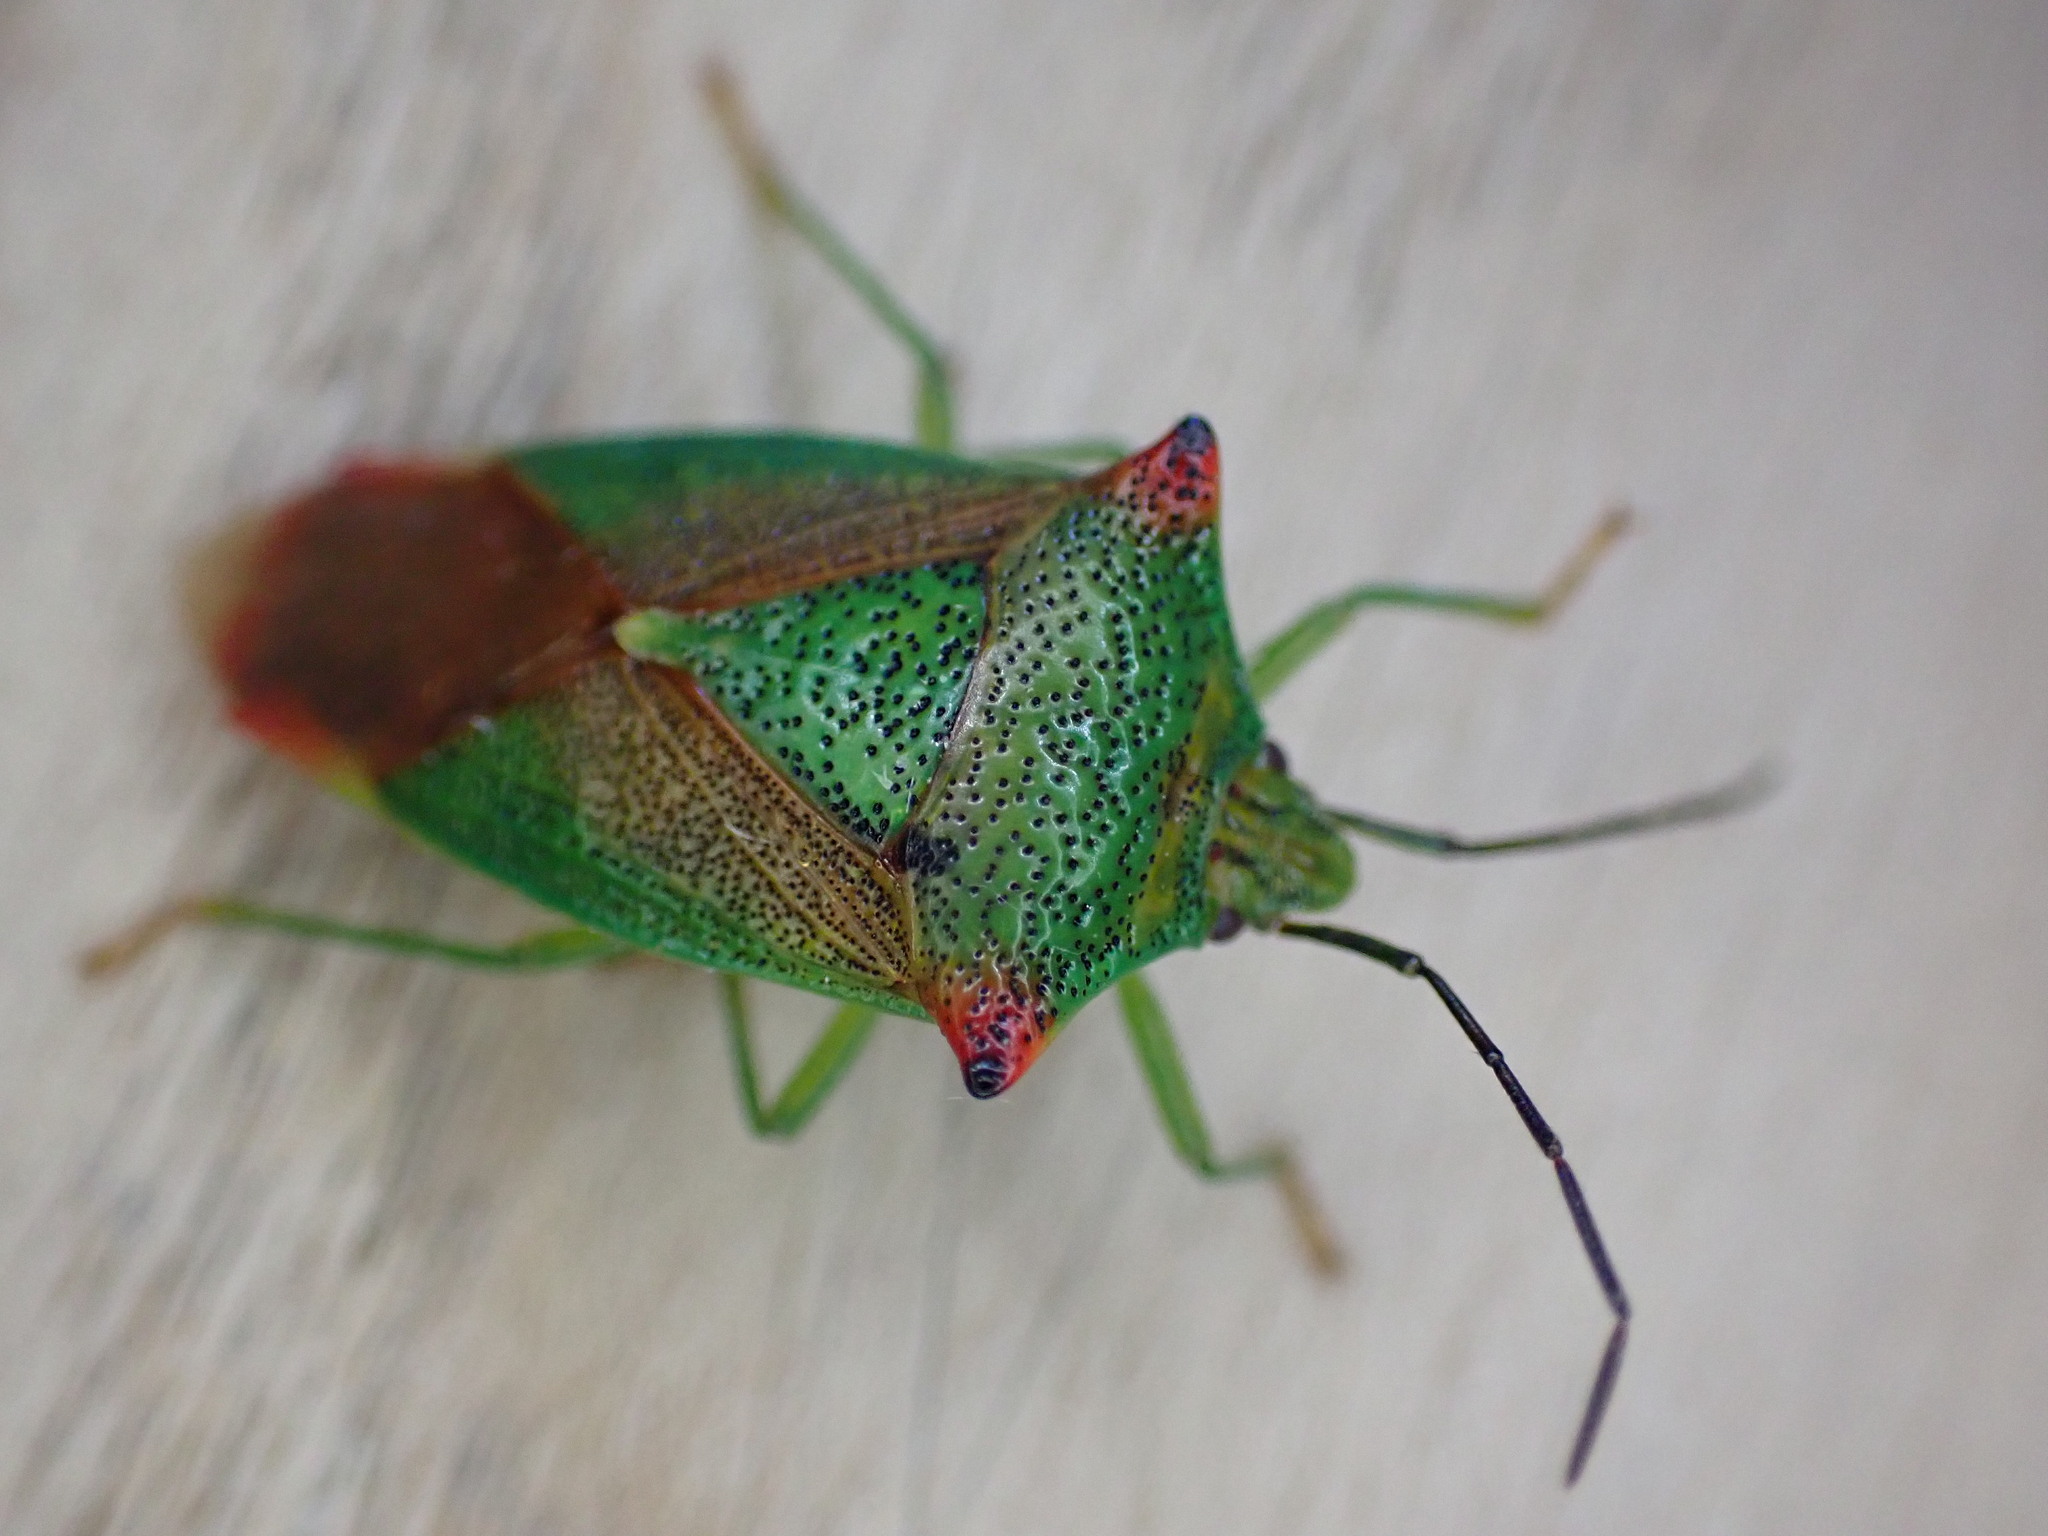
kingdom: Animalia
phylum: Arthropoda
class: Insecta
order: Hemiptera
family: Acanthosomatidae
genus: Acanthosoma
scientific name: Acanthosoma haemorrhoidale
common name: Hawthorn shieldbug
